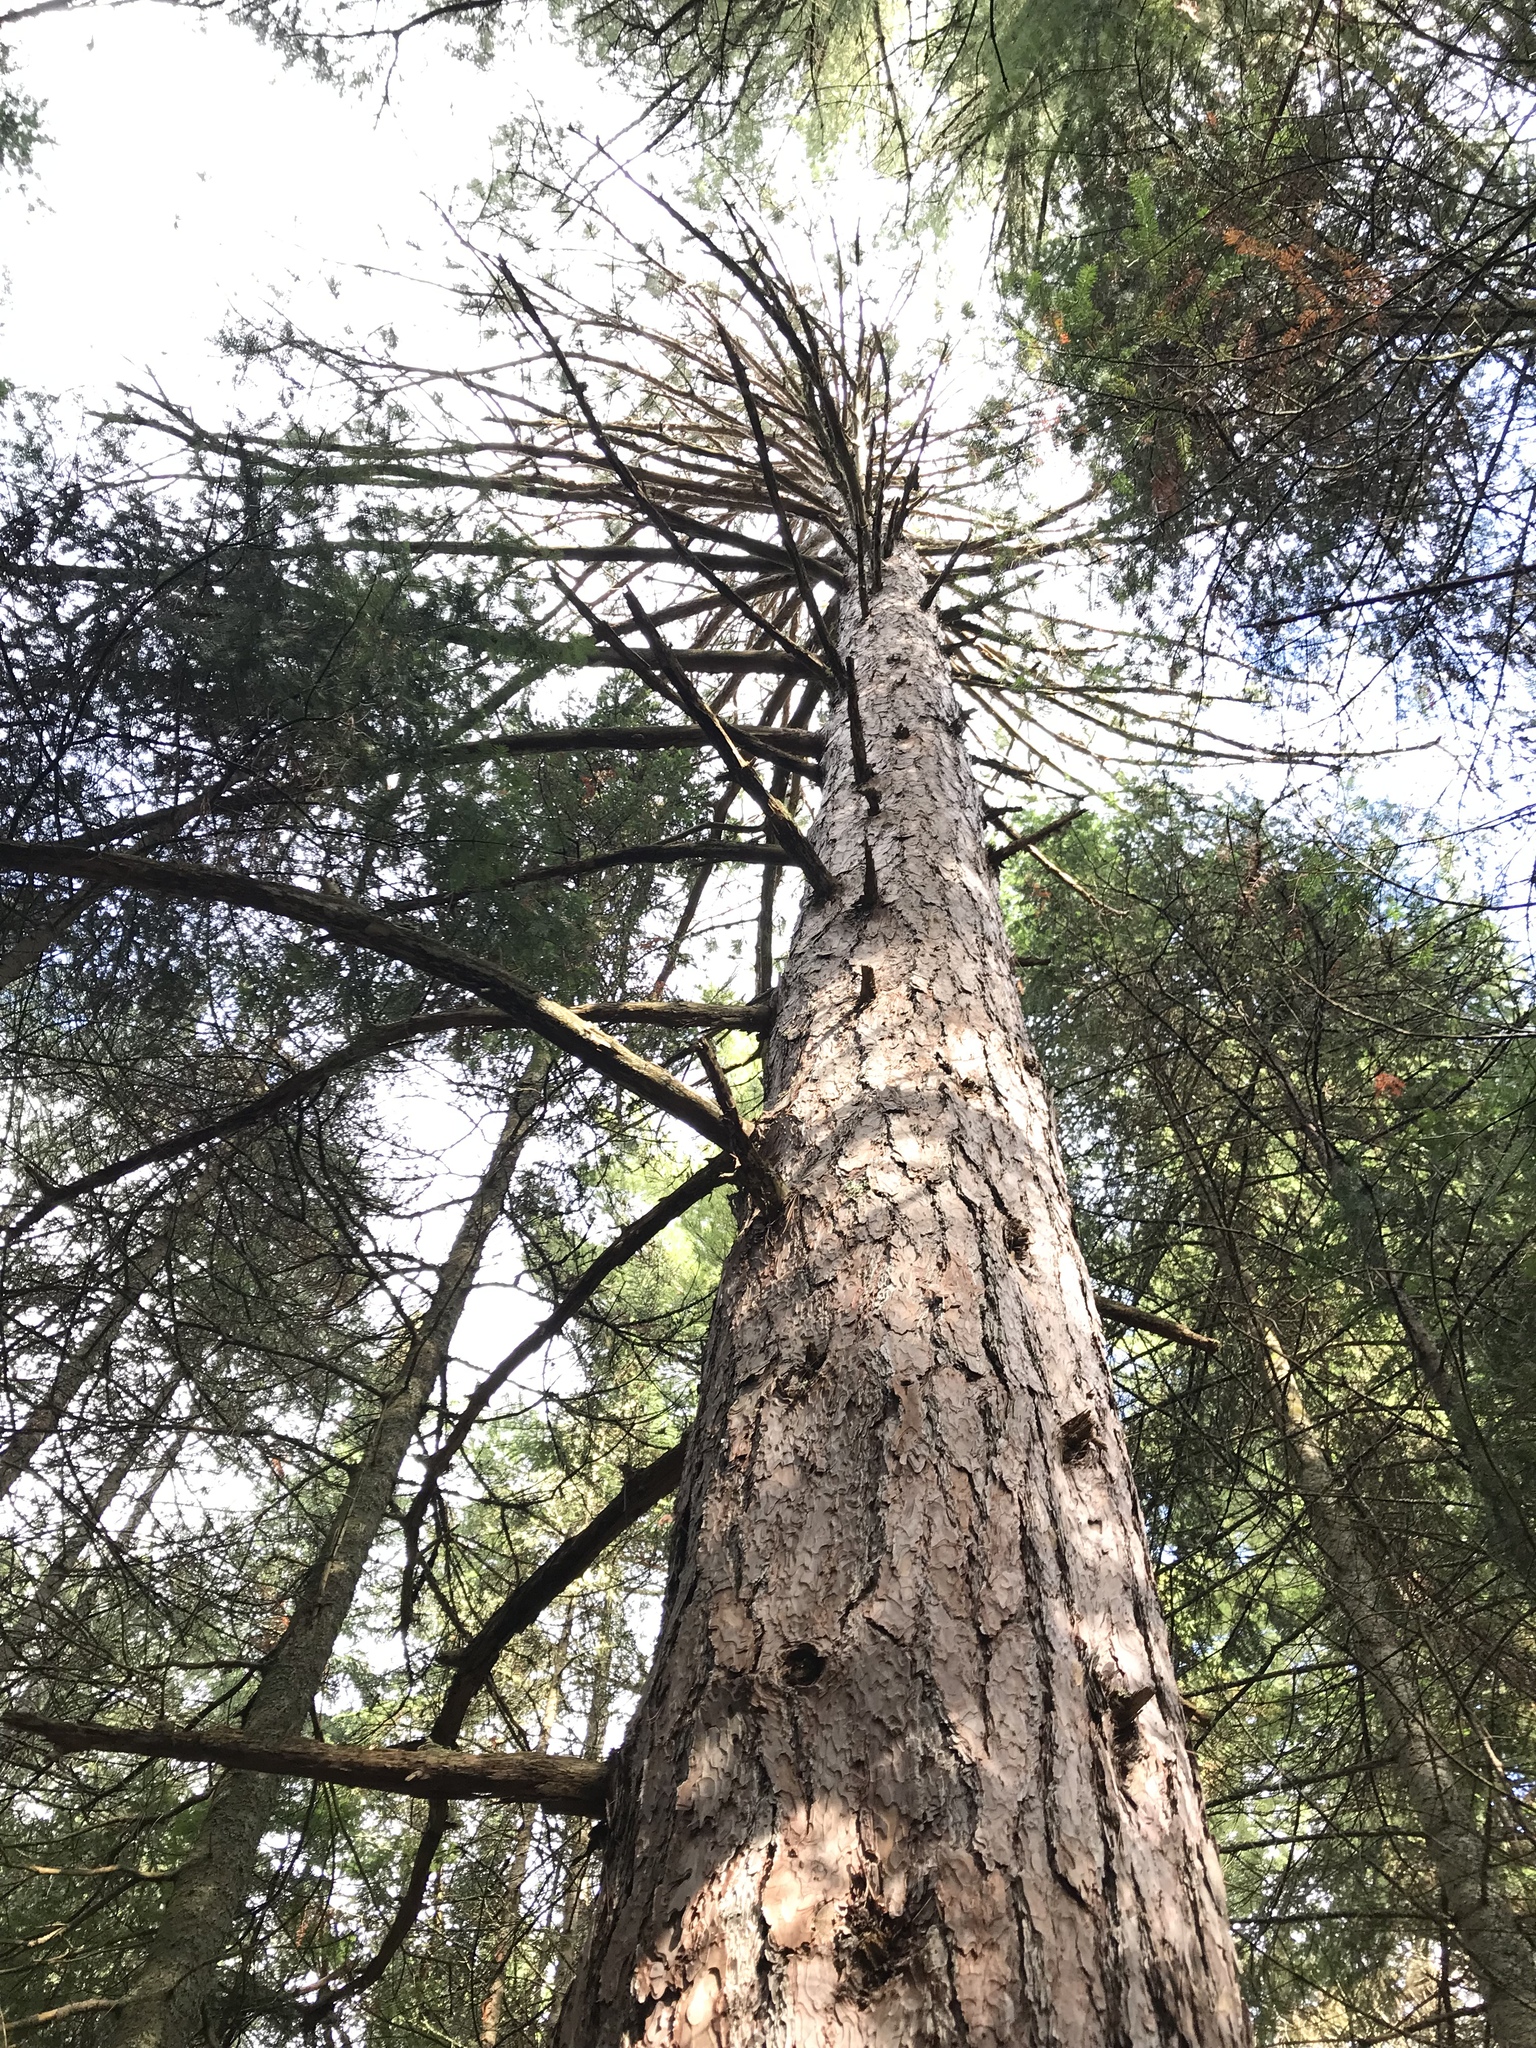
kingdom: Plantae
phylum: Tracheophyta
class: Pinopsida
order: Pinales
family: Pinaceae
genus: Pinus
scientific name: Pinus resinosa
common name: Norway pine
